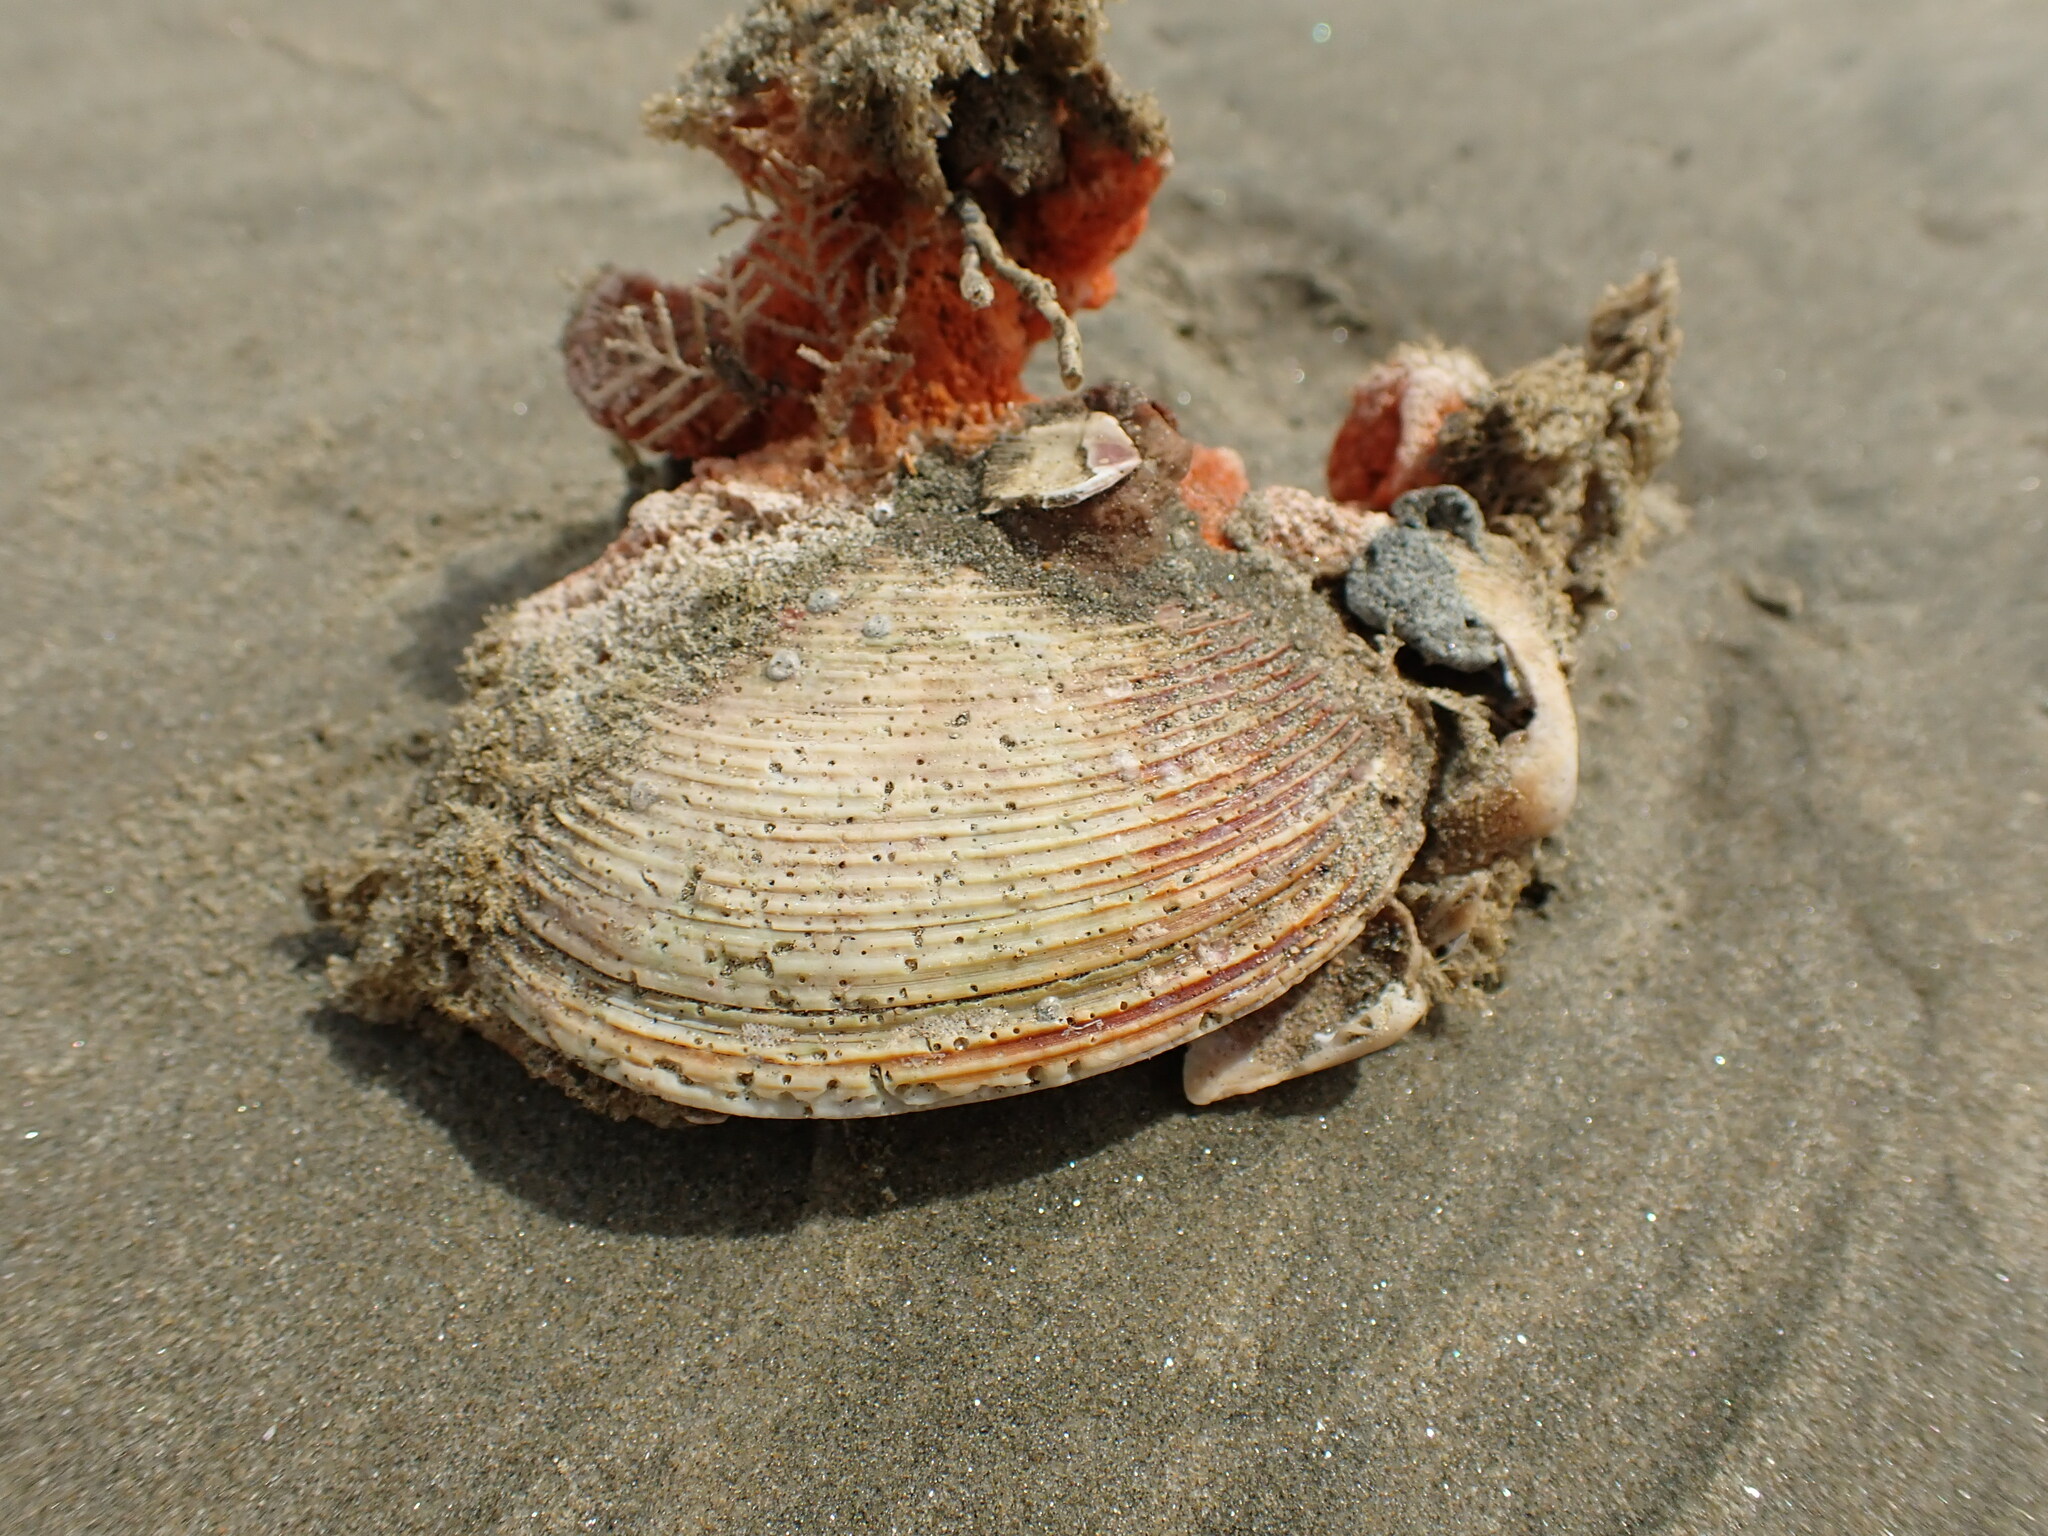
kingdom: Animalia
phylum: Mollusca
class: Bivalvia
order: Venerida
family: Veneridae
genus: Dosina
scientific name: Dosina mactracea
